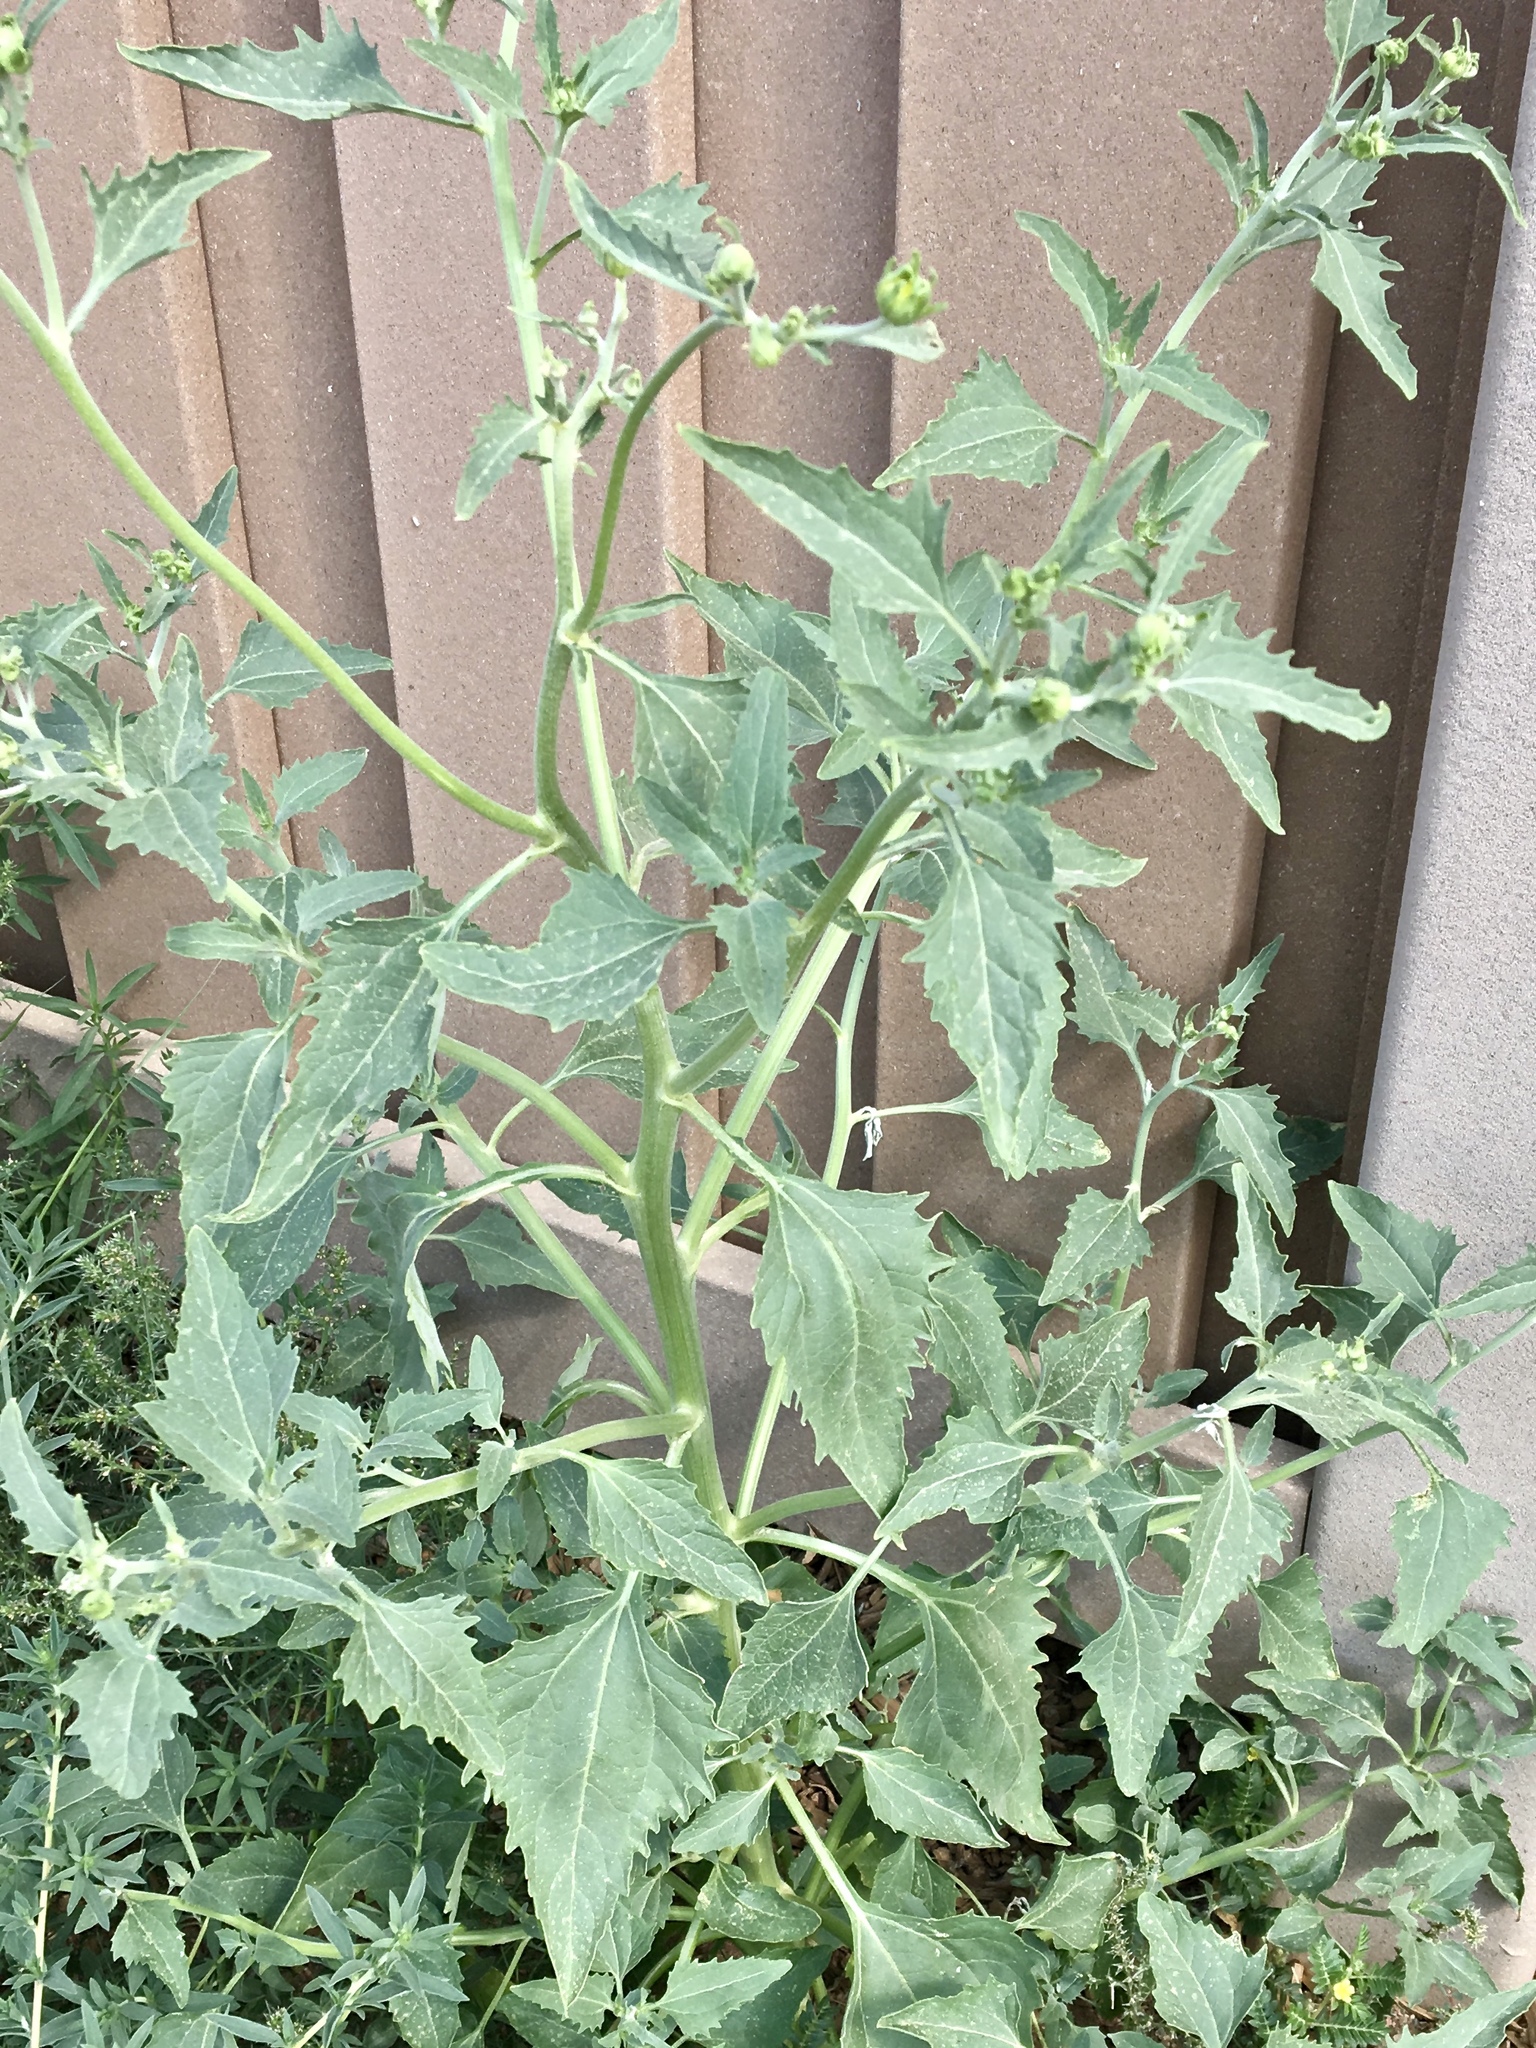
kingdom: Plantae
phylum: Tracheophyta
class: Magnoliopsida
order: Asterales
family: Asteraceae
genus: Verbesina
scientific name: Verbesina encelioides
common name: Golden crownbeard
